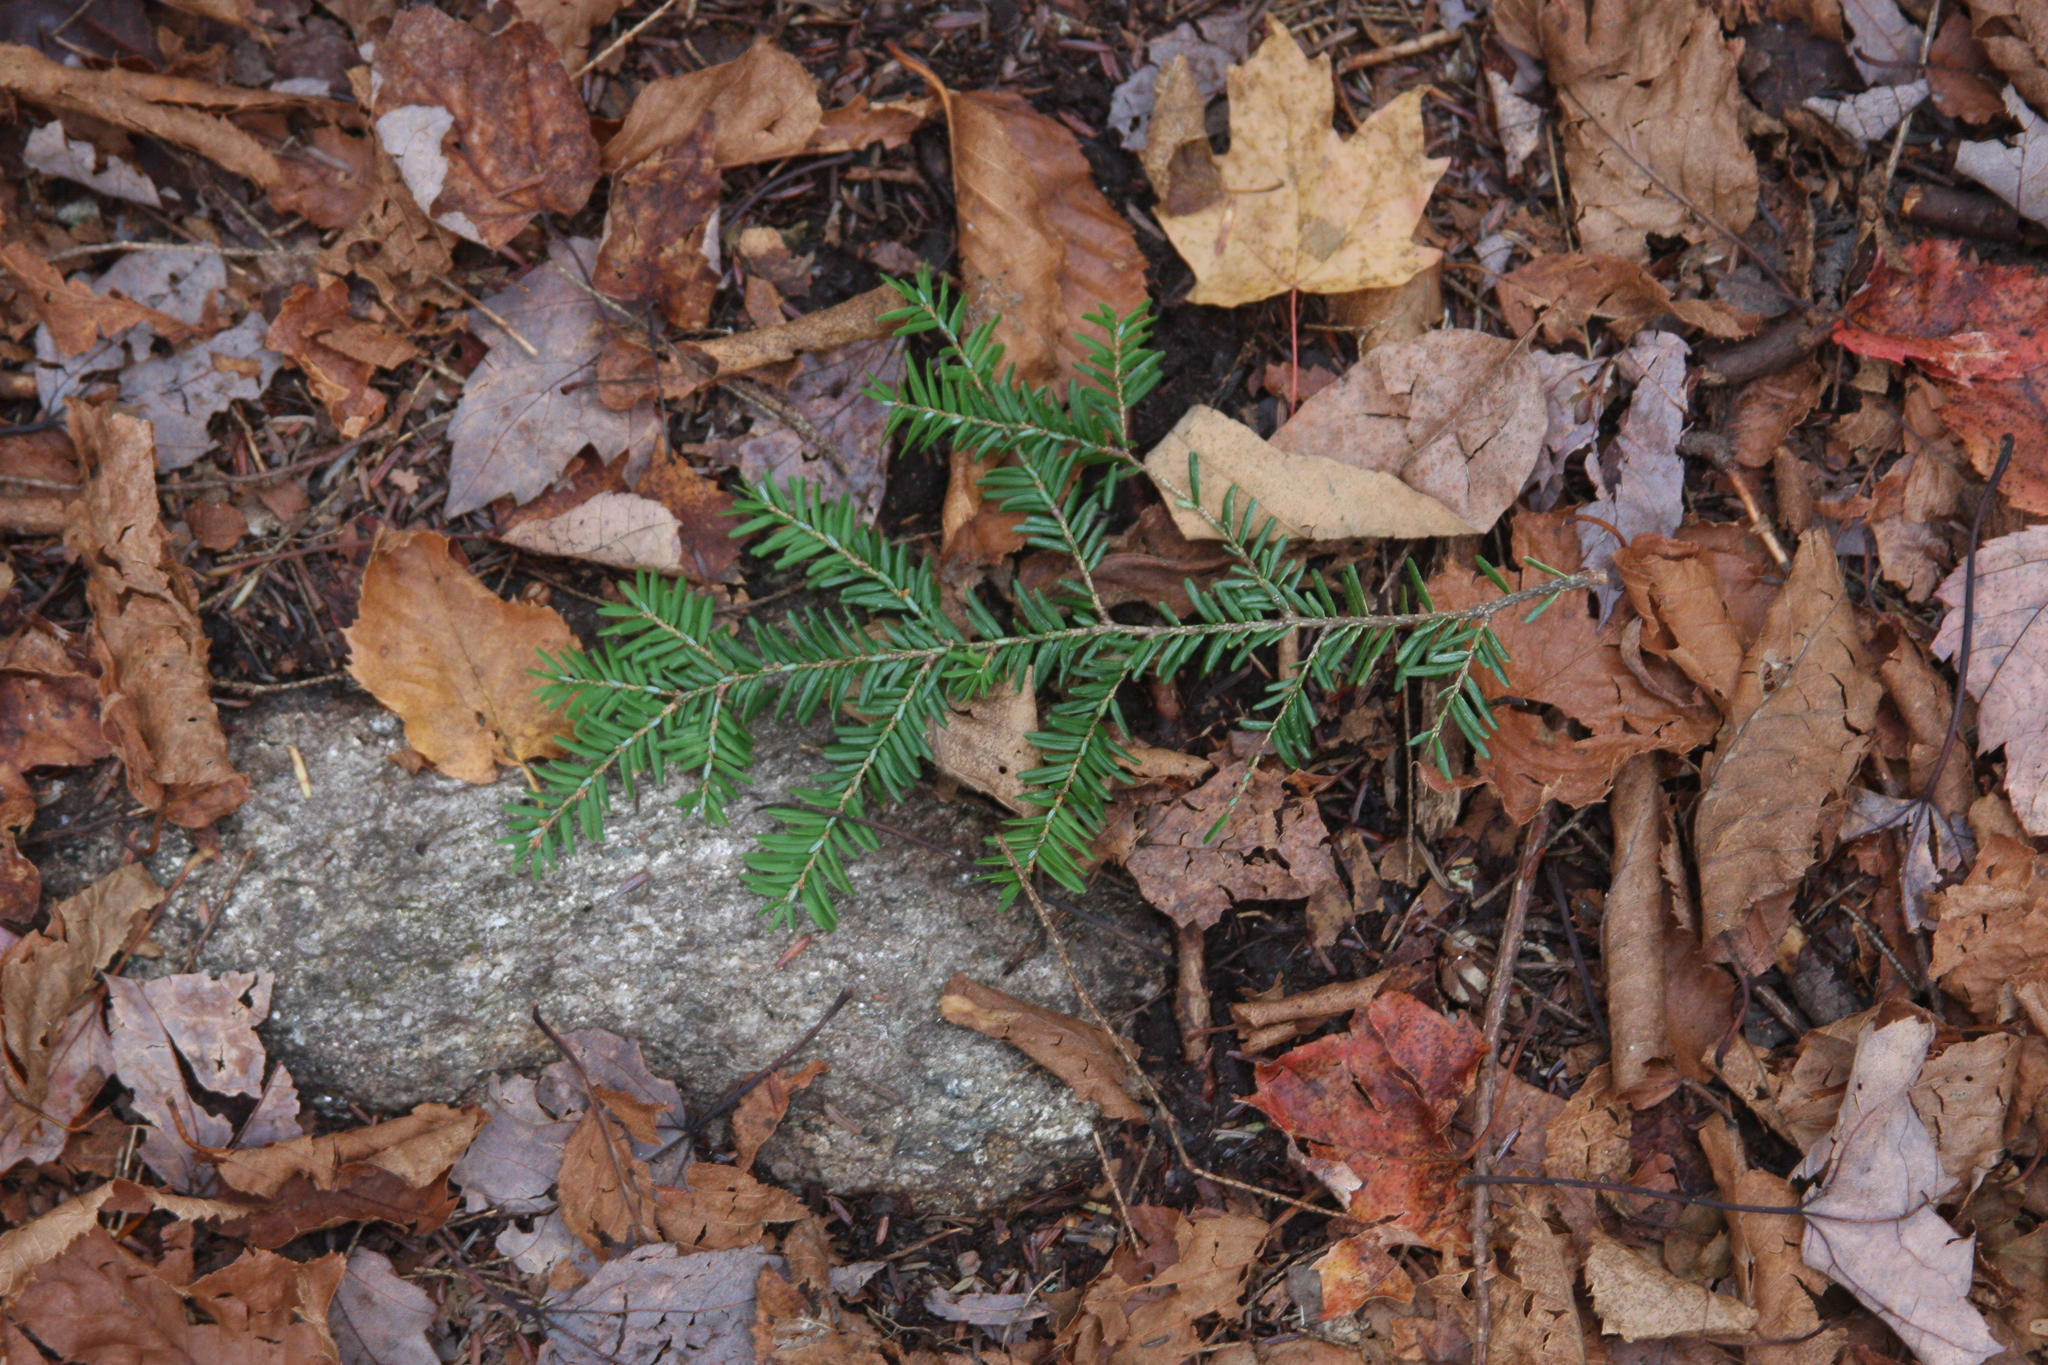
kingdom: Plantae
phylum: Tracheophyta
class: Pinopsida
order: Pinales
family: Pinaceae
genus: Tsuga
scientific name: Tsuga canadensis
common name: Eastern hemlock
